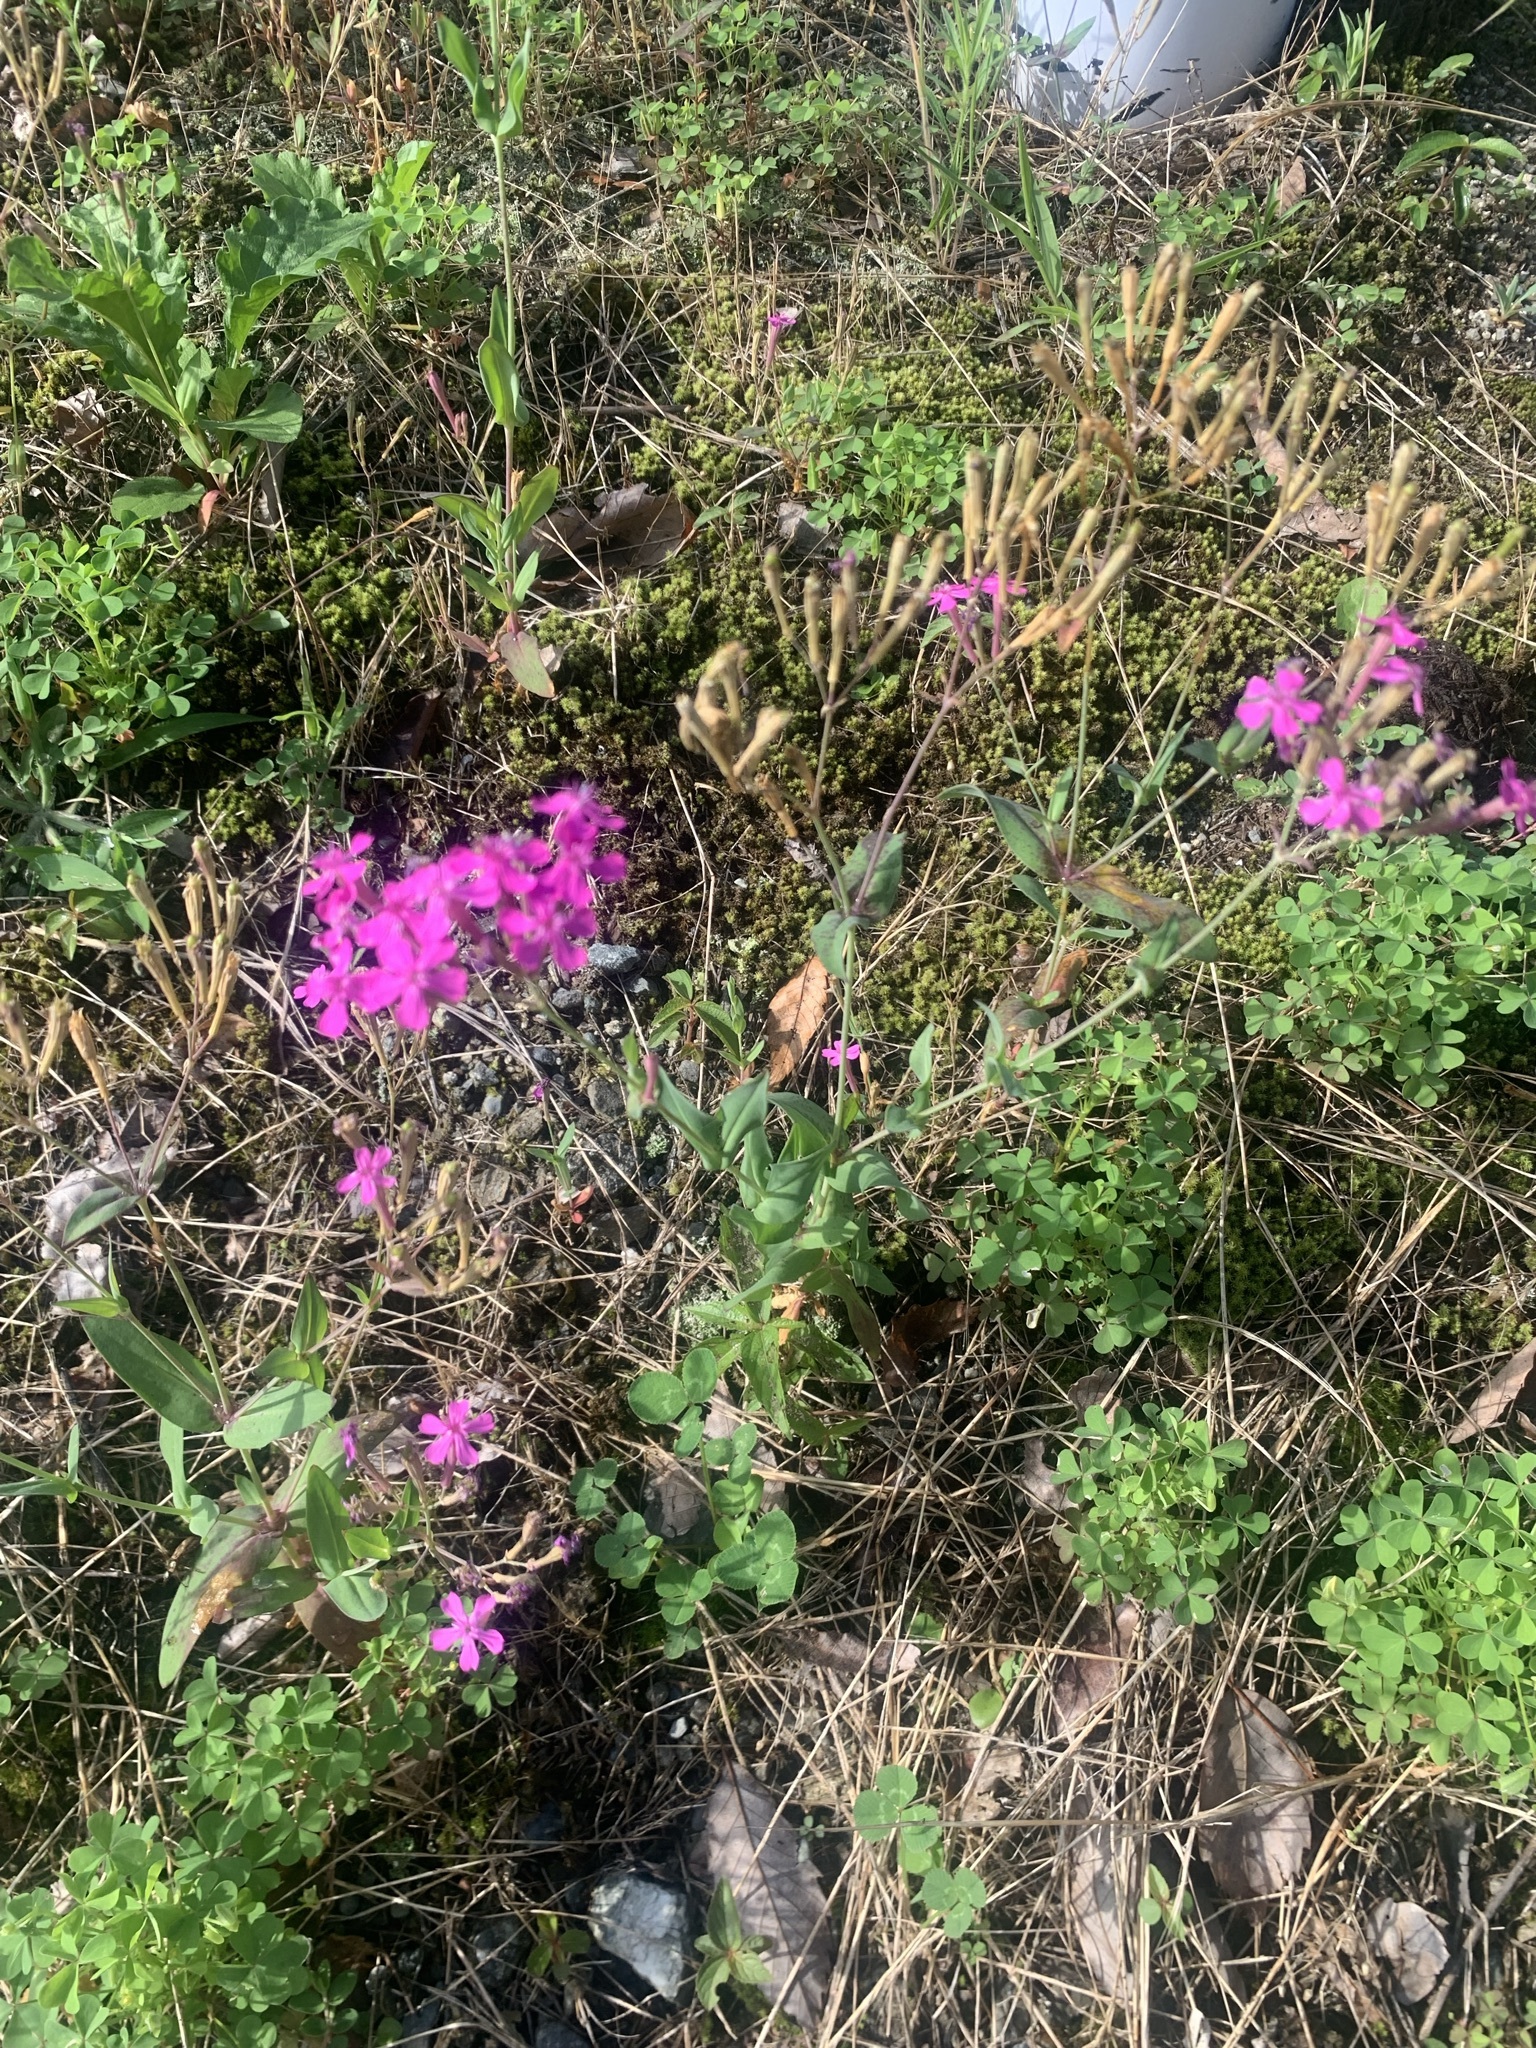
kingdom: Plantae
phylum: Tracheophyta
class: Magnoliopsida
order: Caryophyllales
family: Caryophyllaceae
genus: Atocion
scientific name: Atocion armeria
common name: Sweet william catchfly
